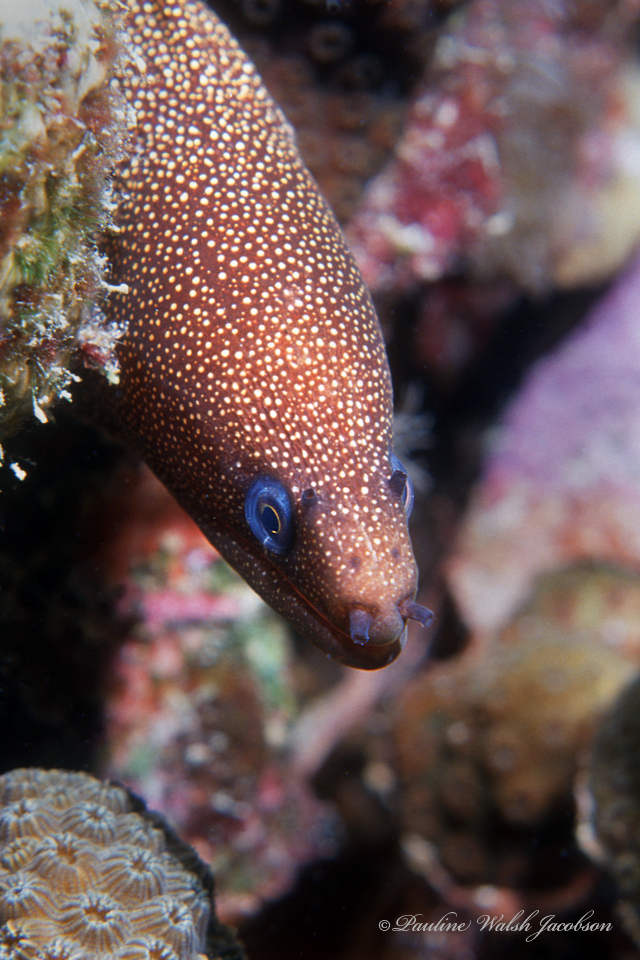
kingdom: Animalia
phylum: Chordata
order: Anguilliformes
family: Muraenidae
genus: Gymnothorax
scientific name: Gymnothorax miliaris
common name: Goldentail moray
